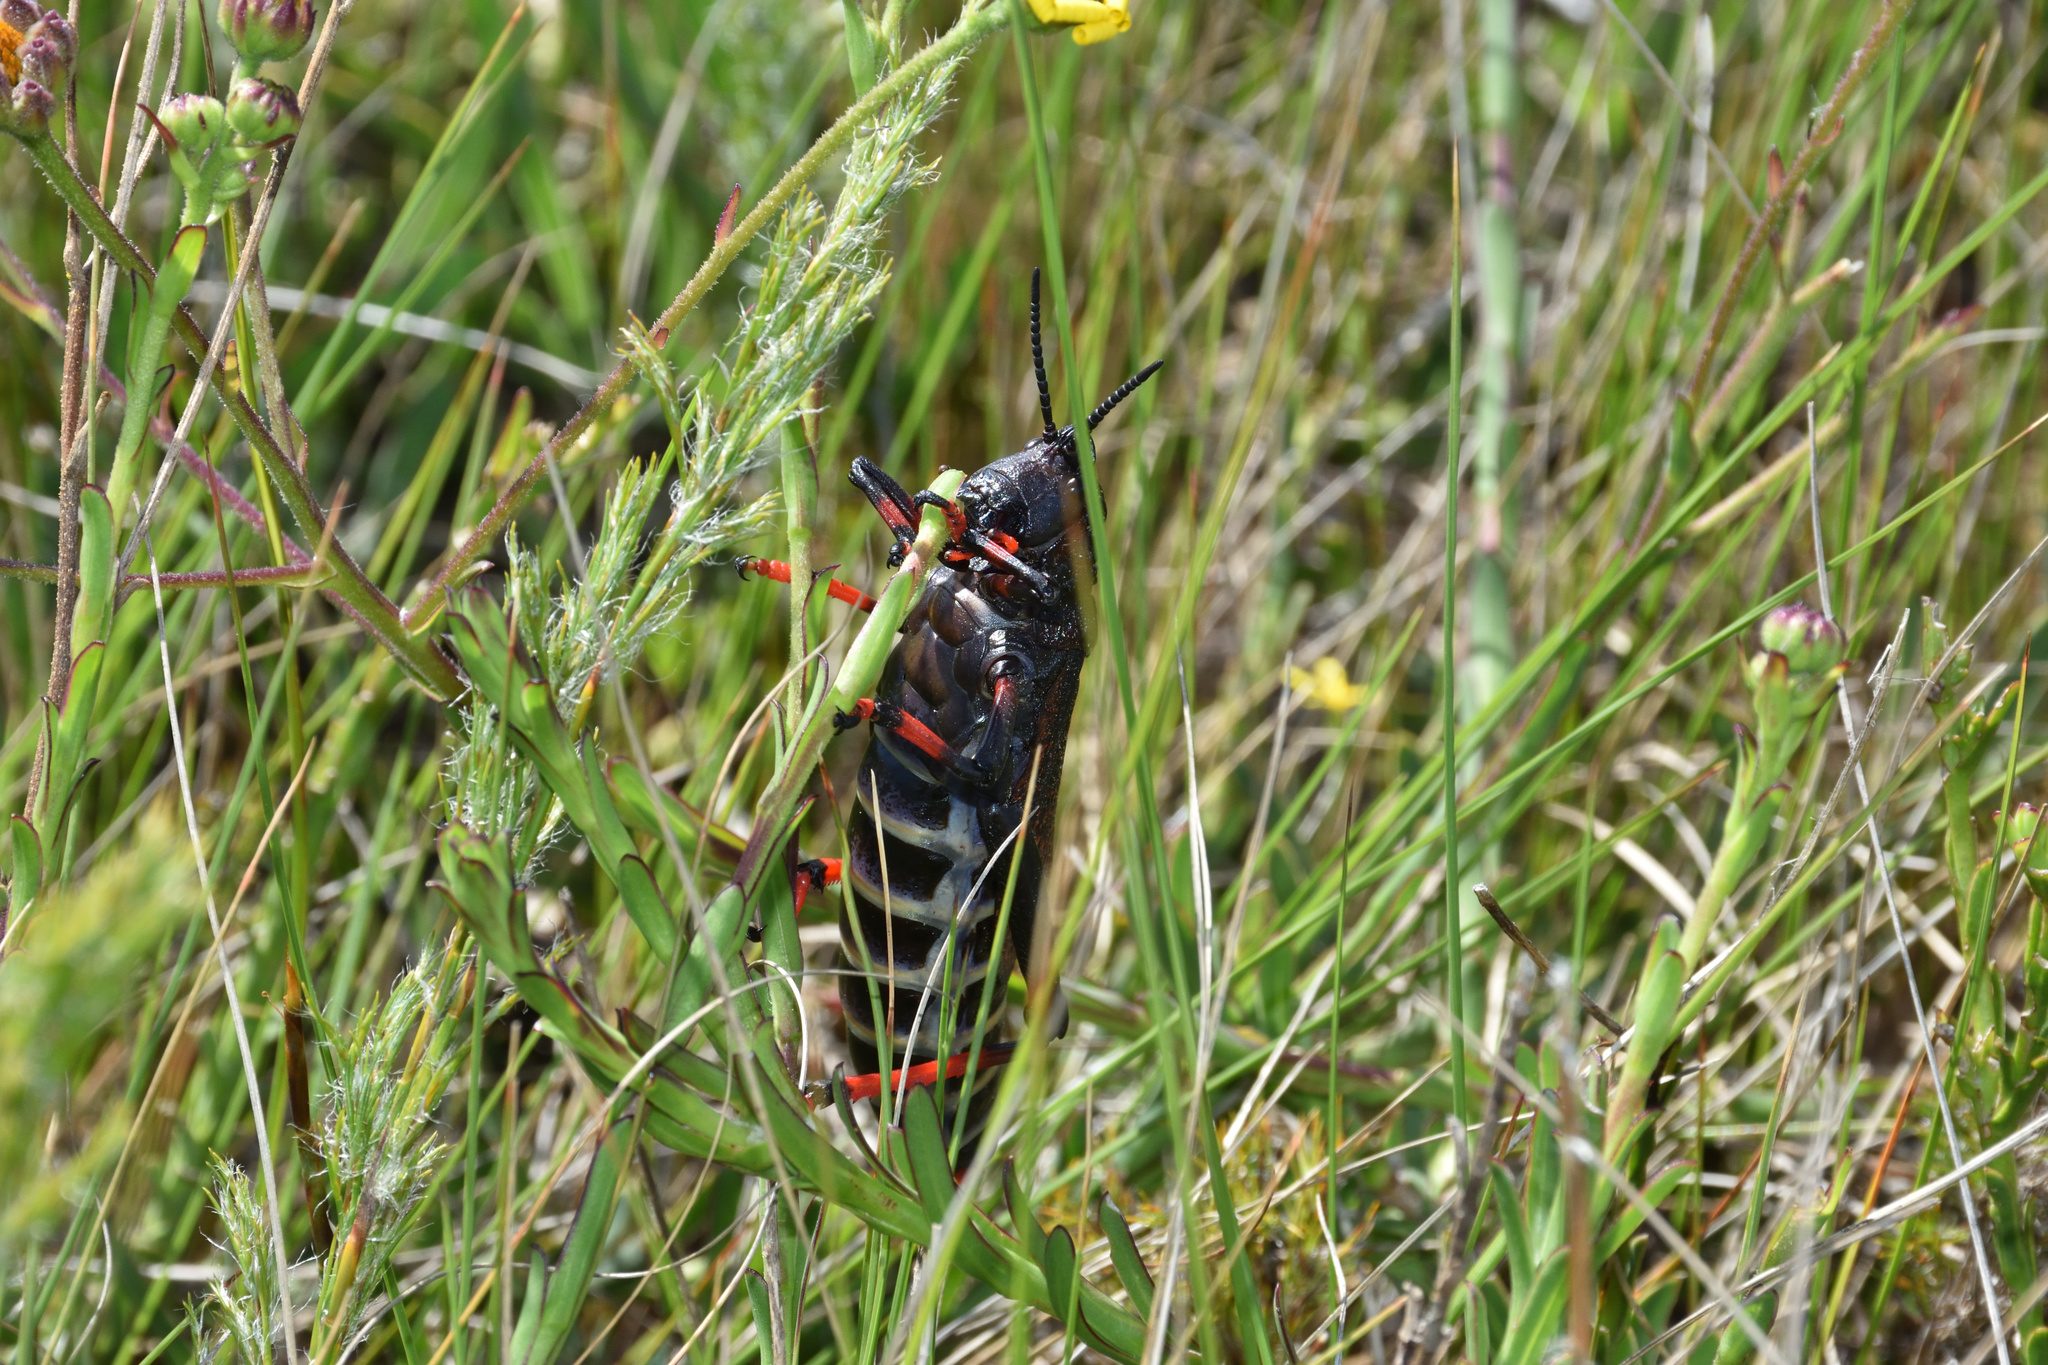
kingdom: Animalia
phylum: Arthropoda
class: Insecta
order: Orthoptera
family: Pyrgomorphidae
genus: Dictyophorus
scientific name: Dictyophorus spumans
